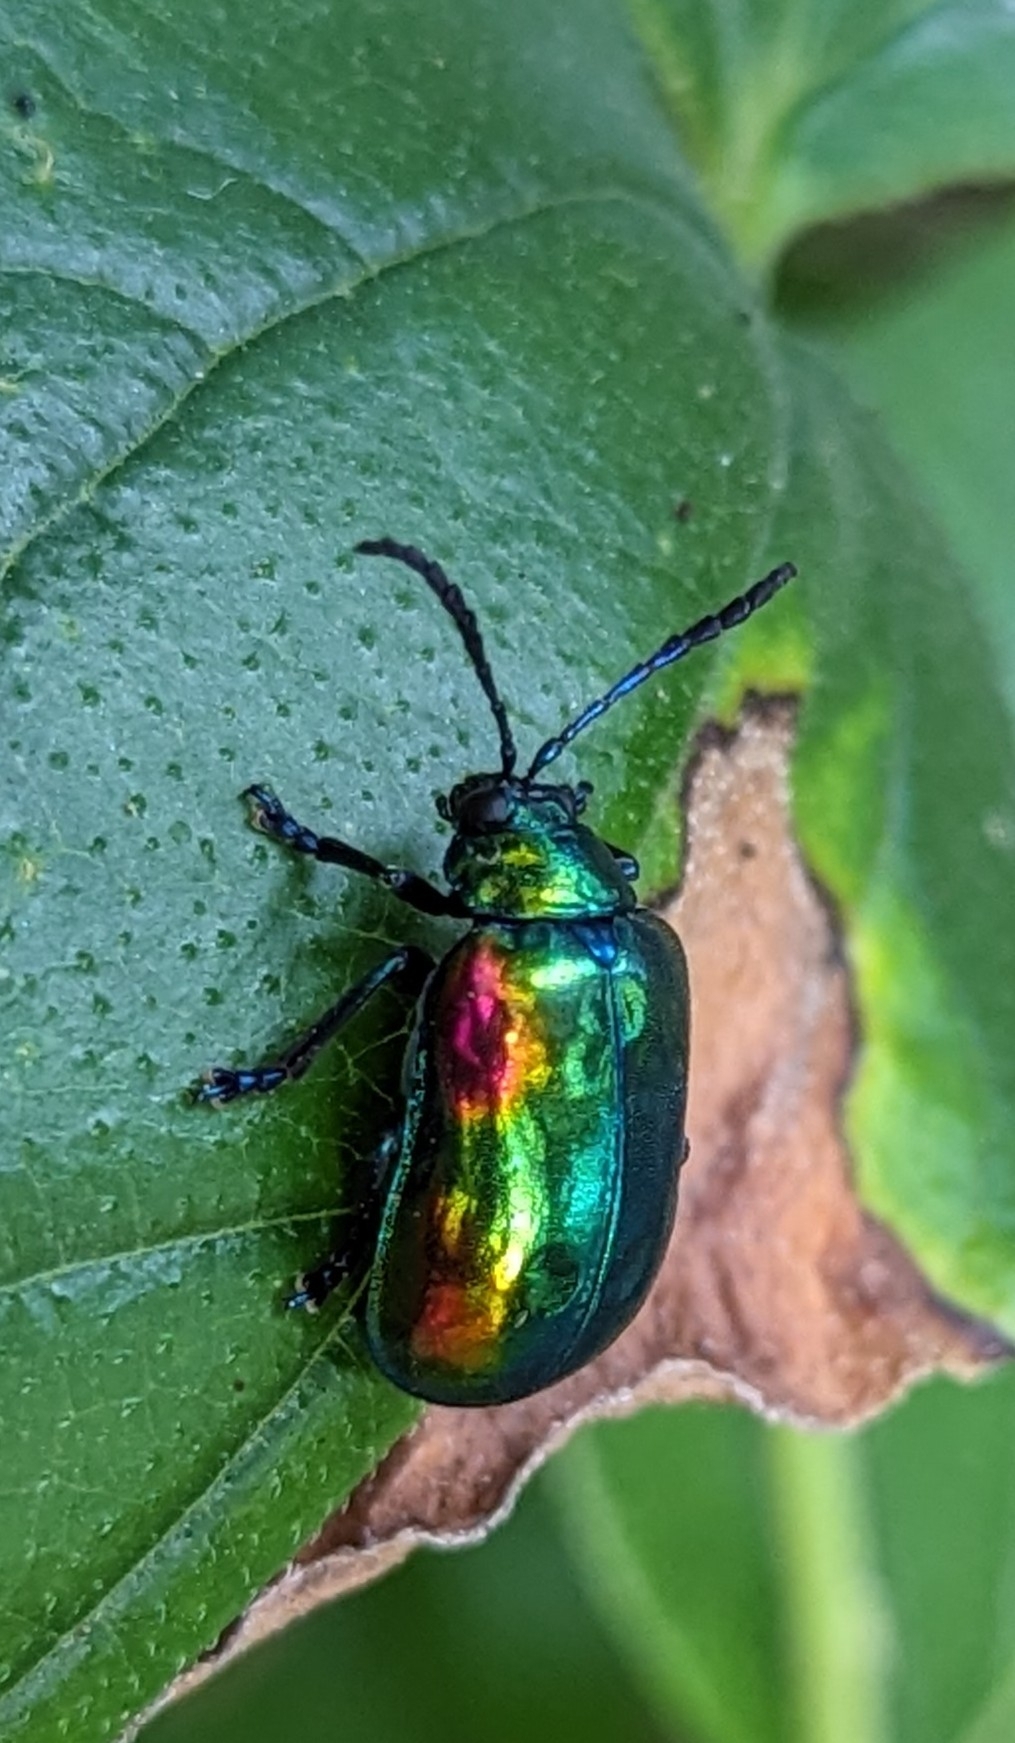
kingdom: Animalia
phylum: Arthropoda
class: Insecta
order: Coleoptera
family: Chrysomelidae
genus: Periclitena
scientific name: Periclitena vigorsi
